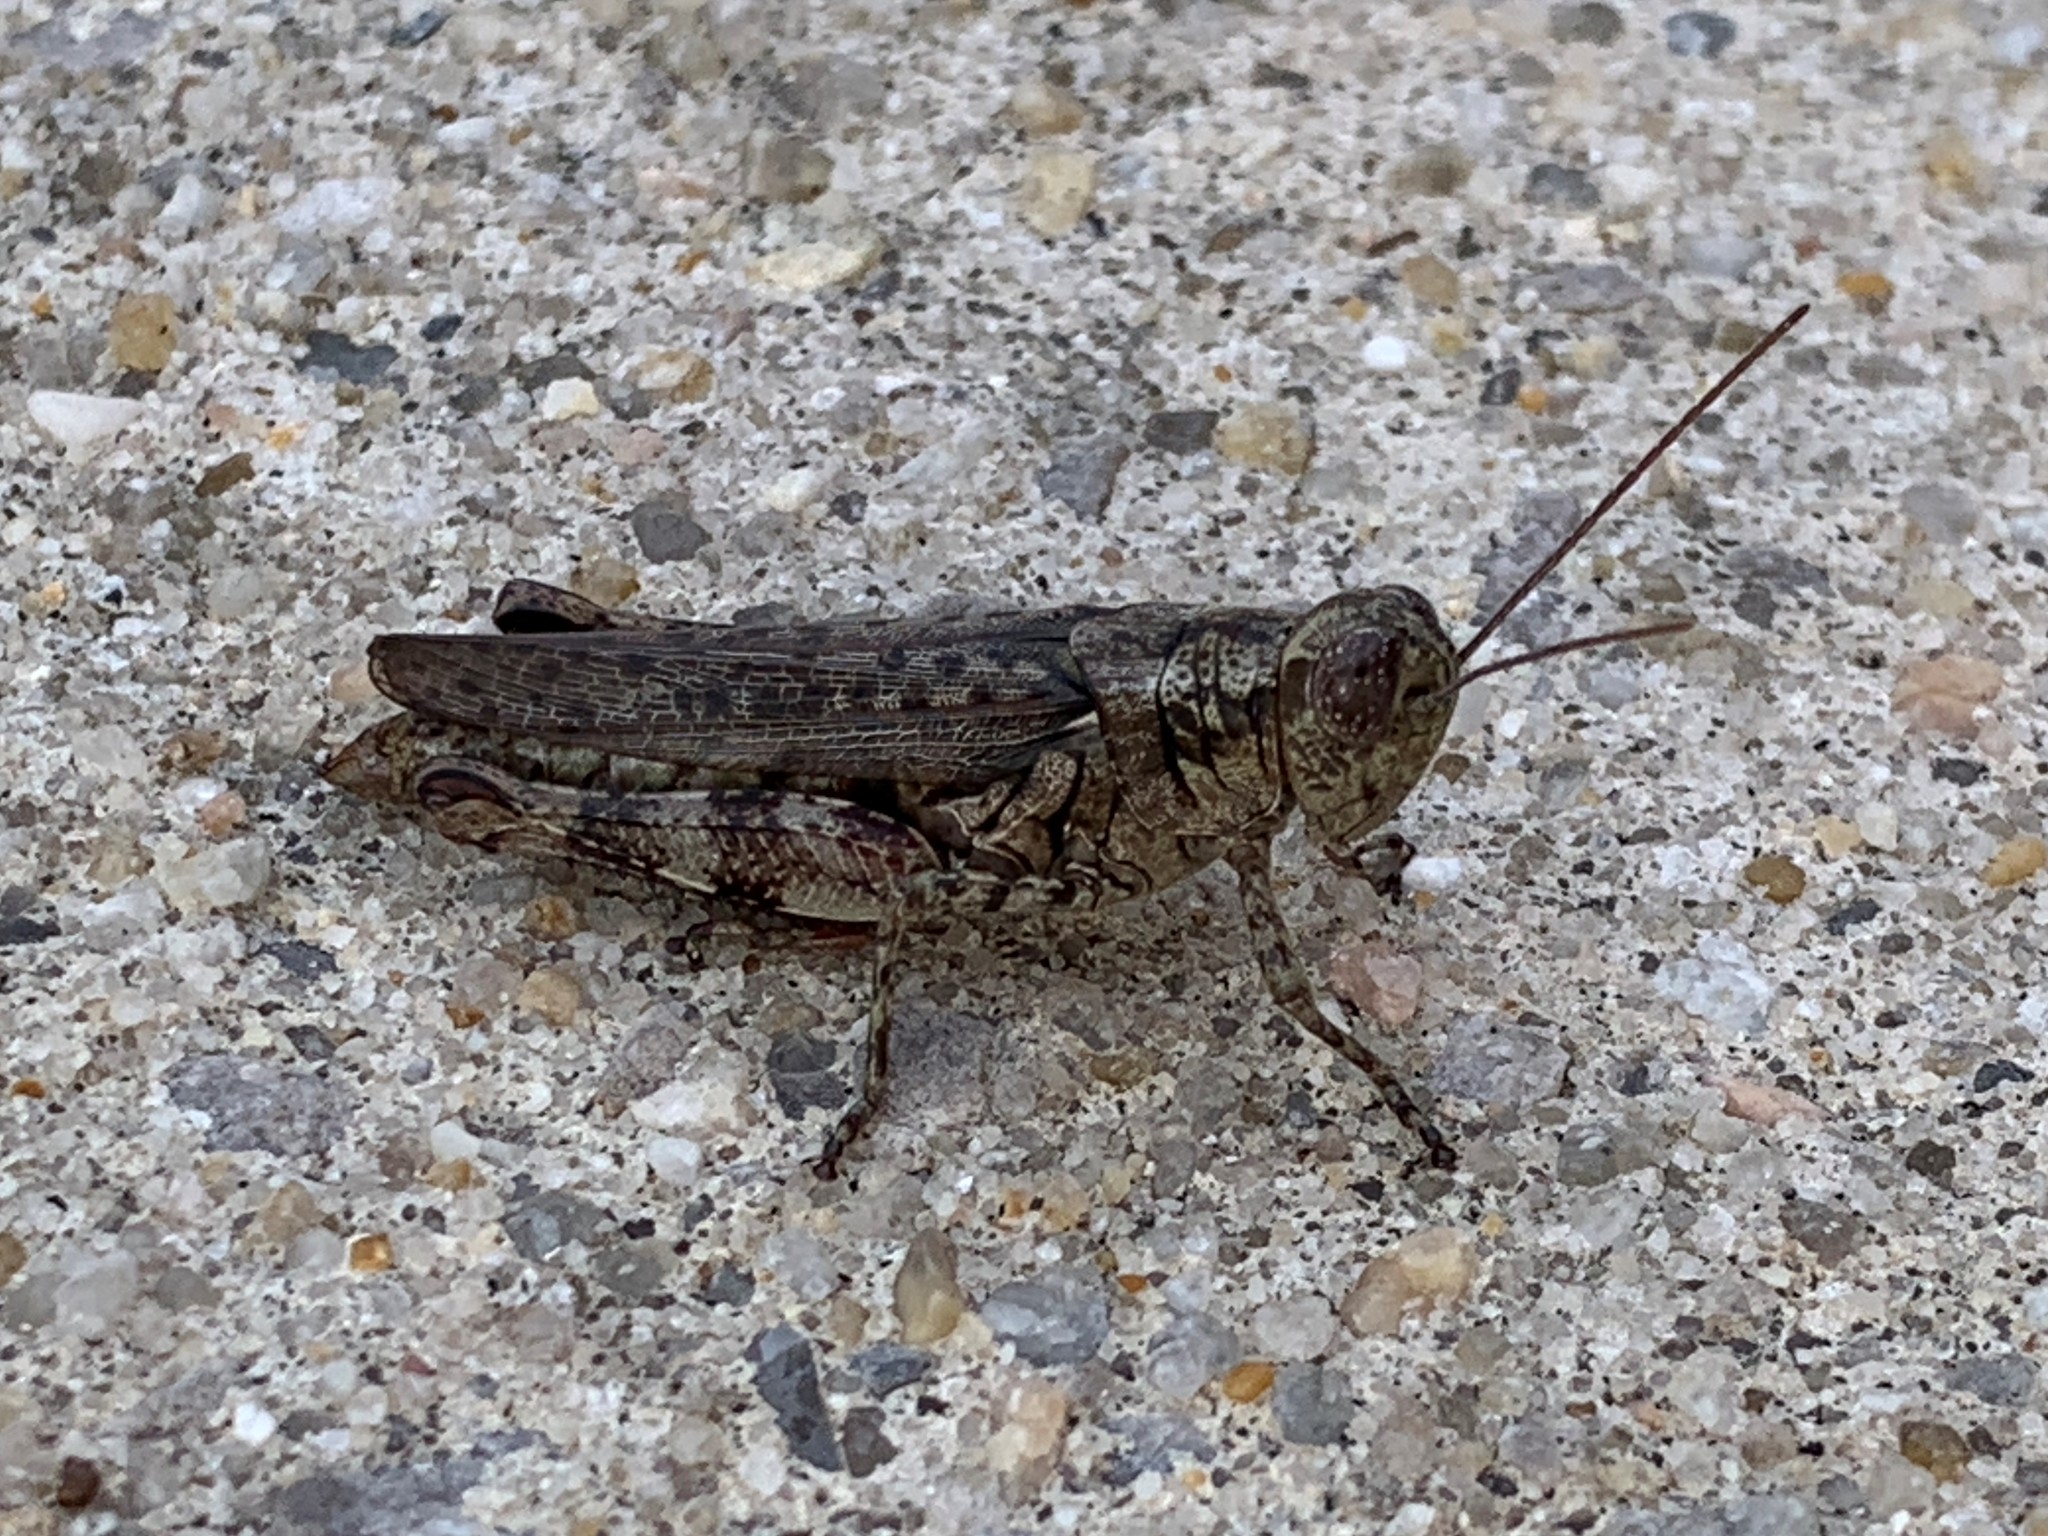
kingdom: Animalia
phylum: Arthropoda
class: Insecta
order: Orthoptera
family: Acrididae
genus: Melanoplus
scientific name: Melanoplus punctulatus
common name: Pine-tree spur-throat grasshopper
